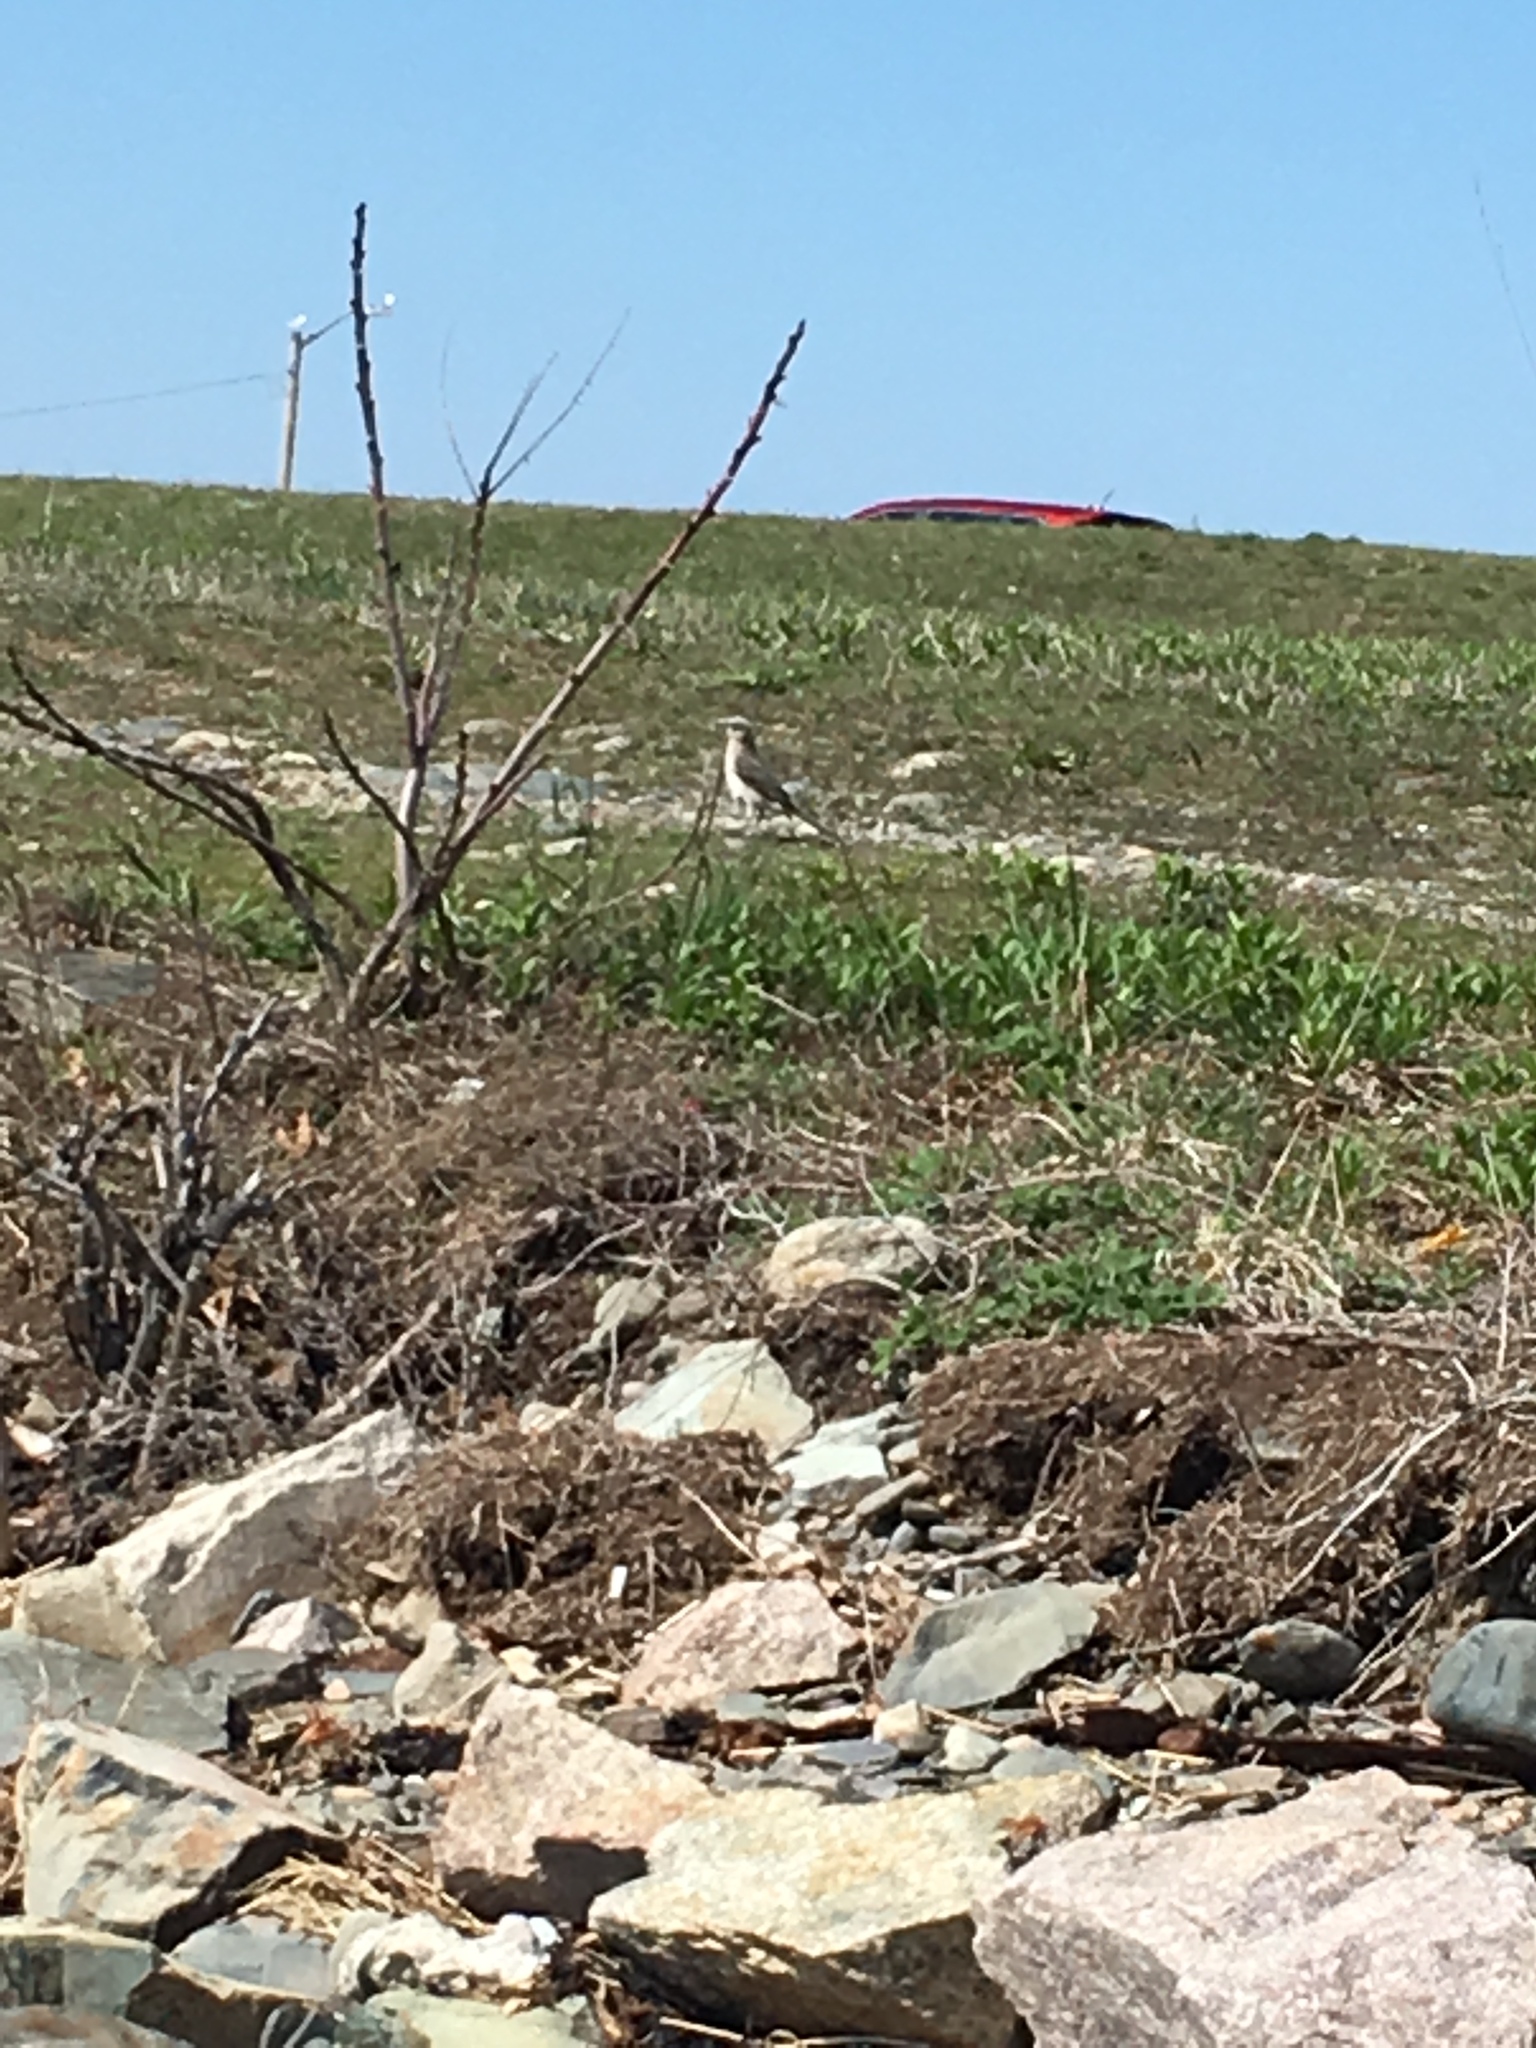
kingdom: Animalia
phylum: Chordata
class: Aves
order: Passeriformes
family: Mimidae
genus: Mimus
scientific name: Mimus polyglottos
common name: Northern mockingbird
